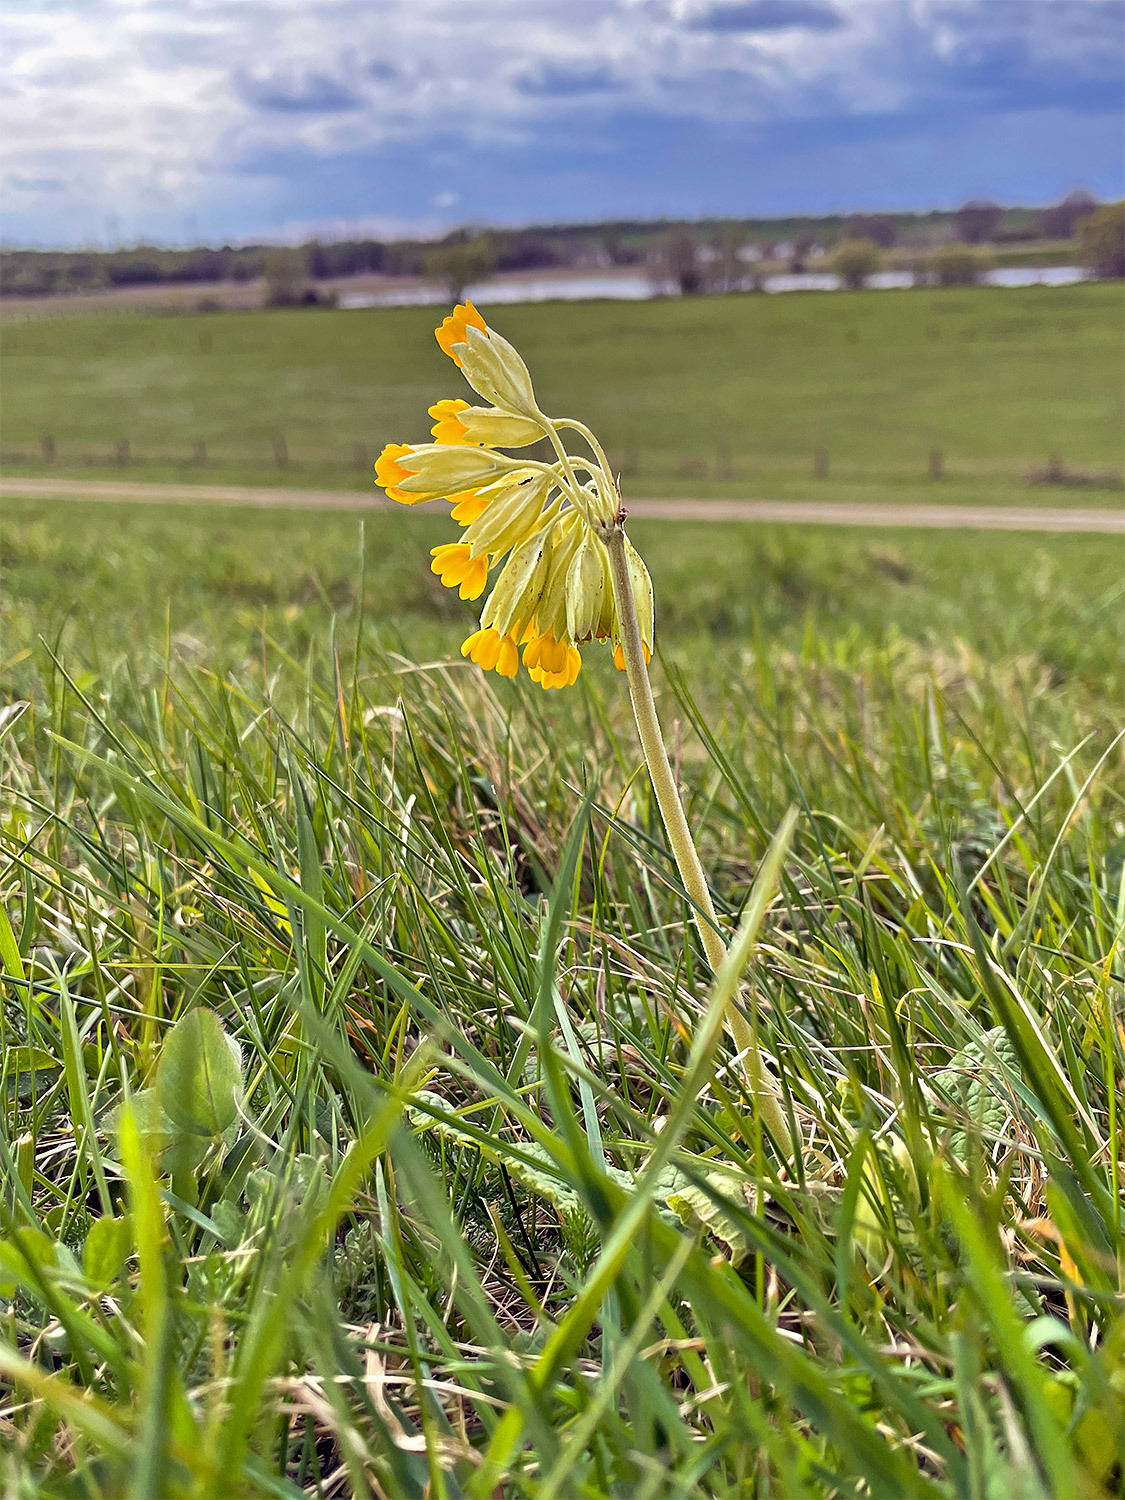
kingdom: Plantae
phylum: Tracheophyta
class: Magnoliopsida
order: Ericales
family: Primulaceae
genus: Primula
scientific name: Primula veris
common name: Cowslip
